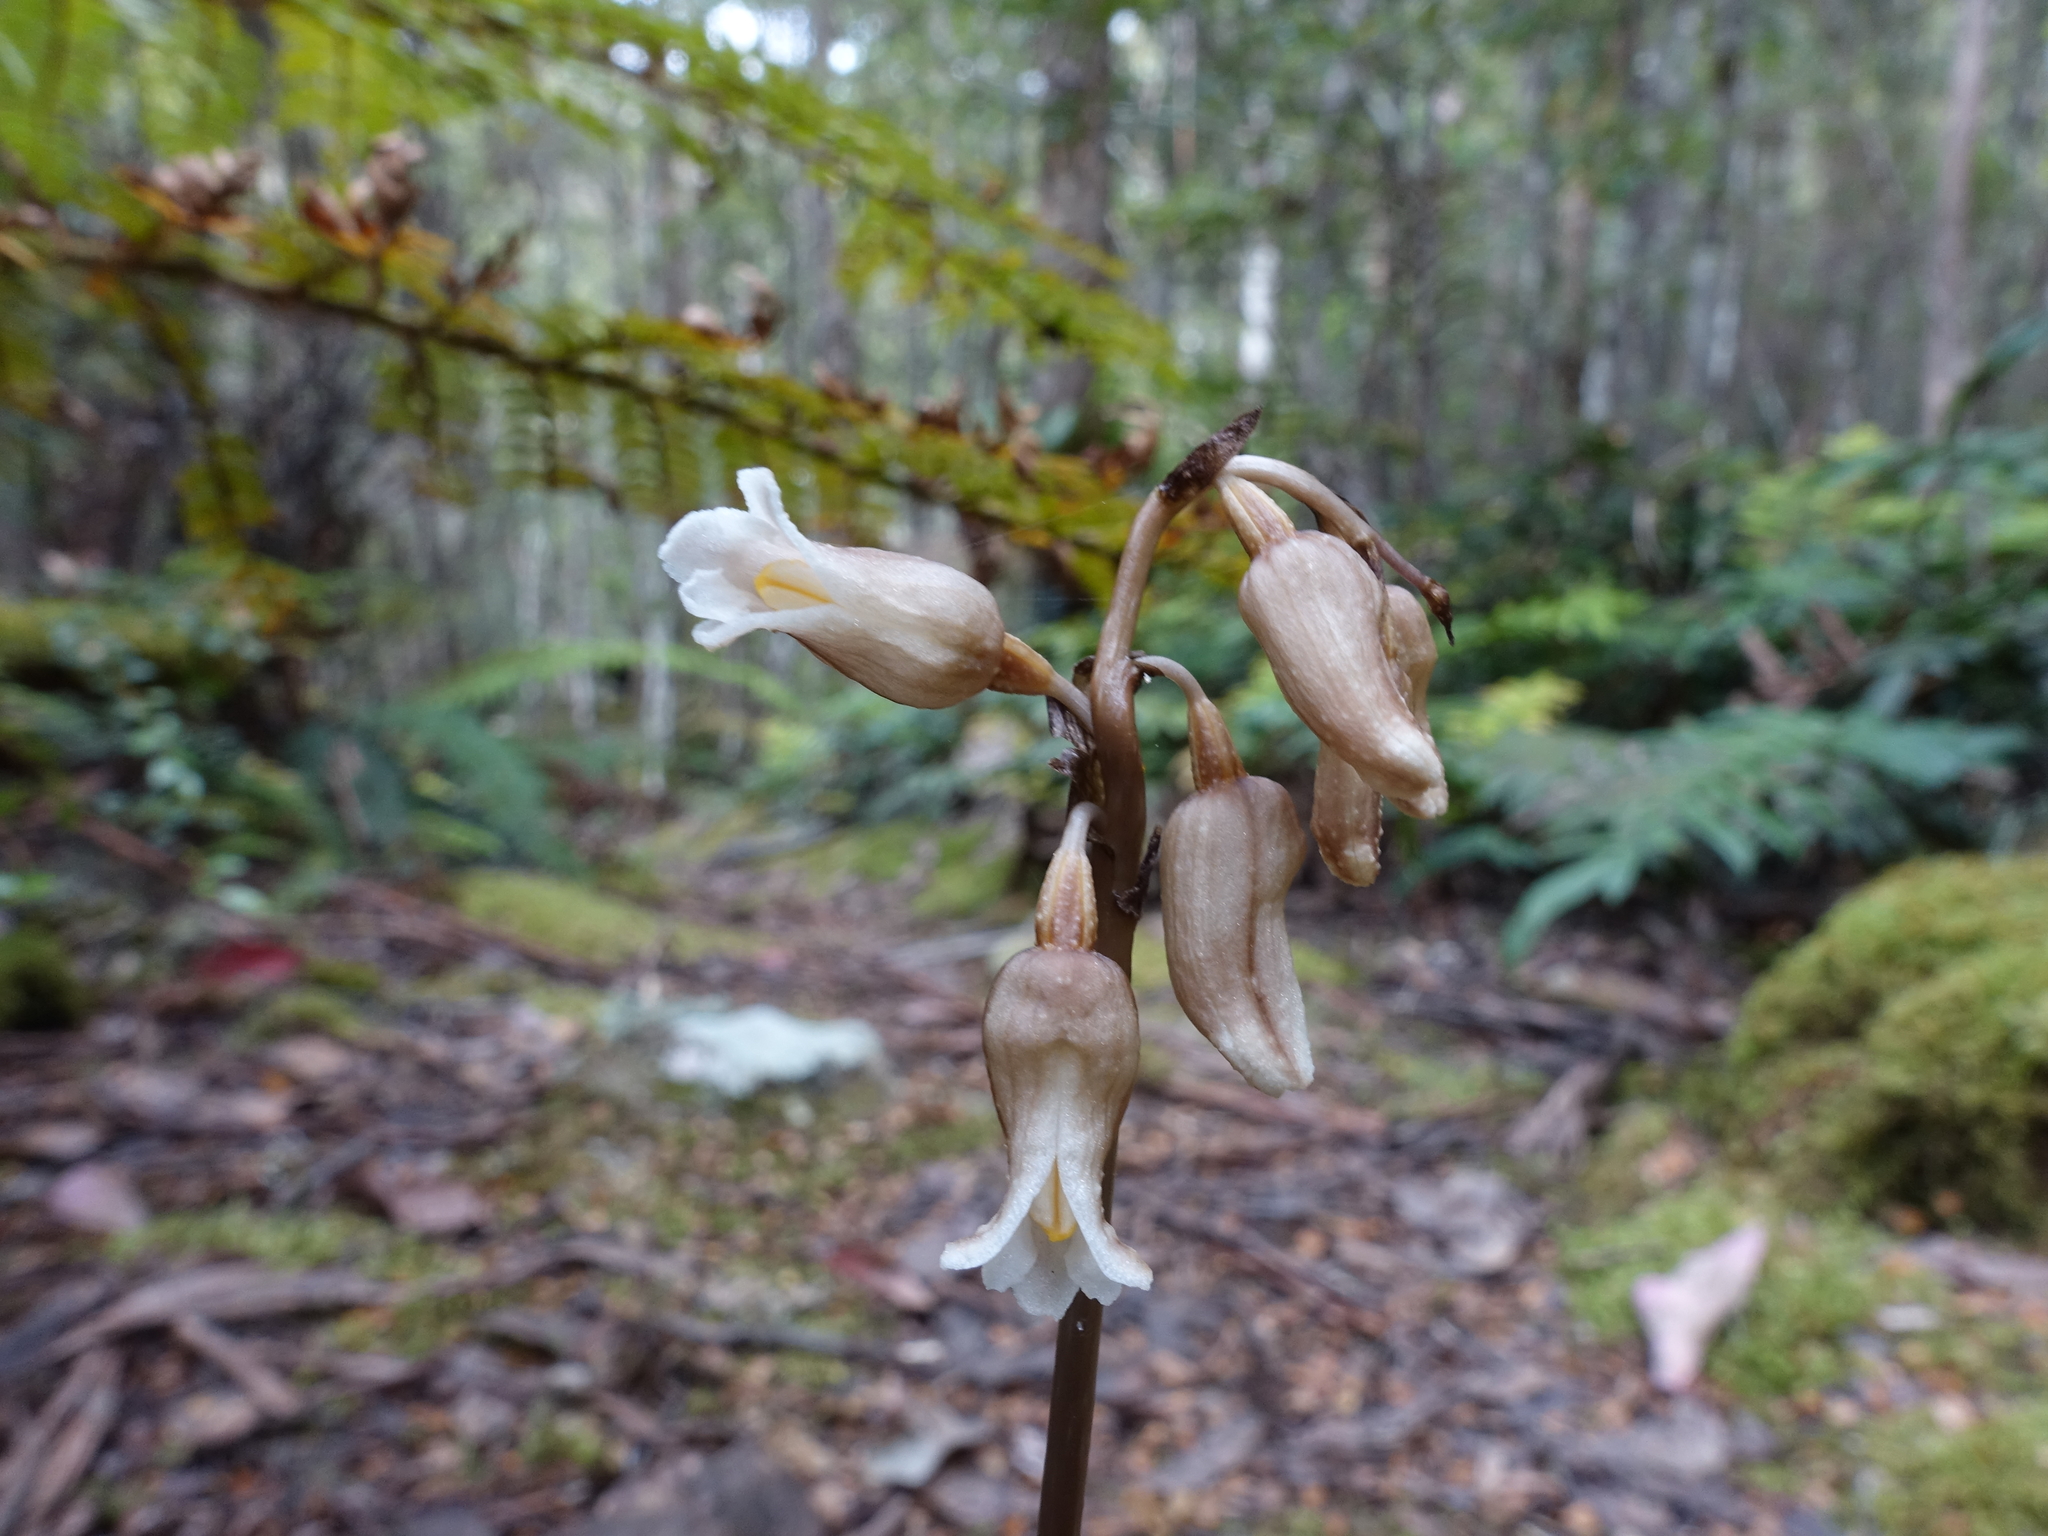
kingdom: Plantae
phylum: Tracheophyta
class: Liliopsida
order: Asparagales
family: Orchidaceae
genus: Gastrodia
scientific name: Gastrodia procera
